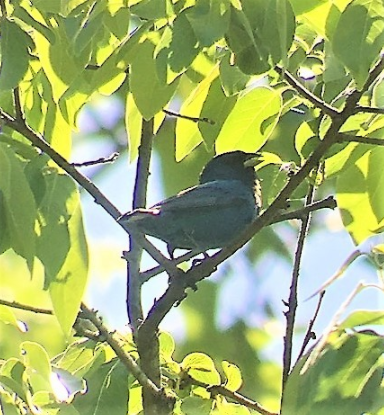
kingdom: Animalia
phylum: Chordata
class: Aves
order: Passeriformes
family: Cardinalidae
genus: Passerina
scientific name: Passerina cyanea
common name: Indigo bunting
